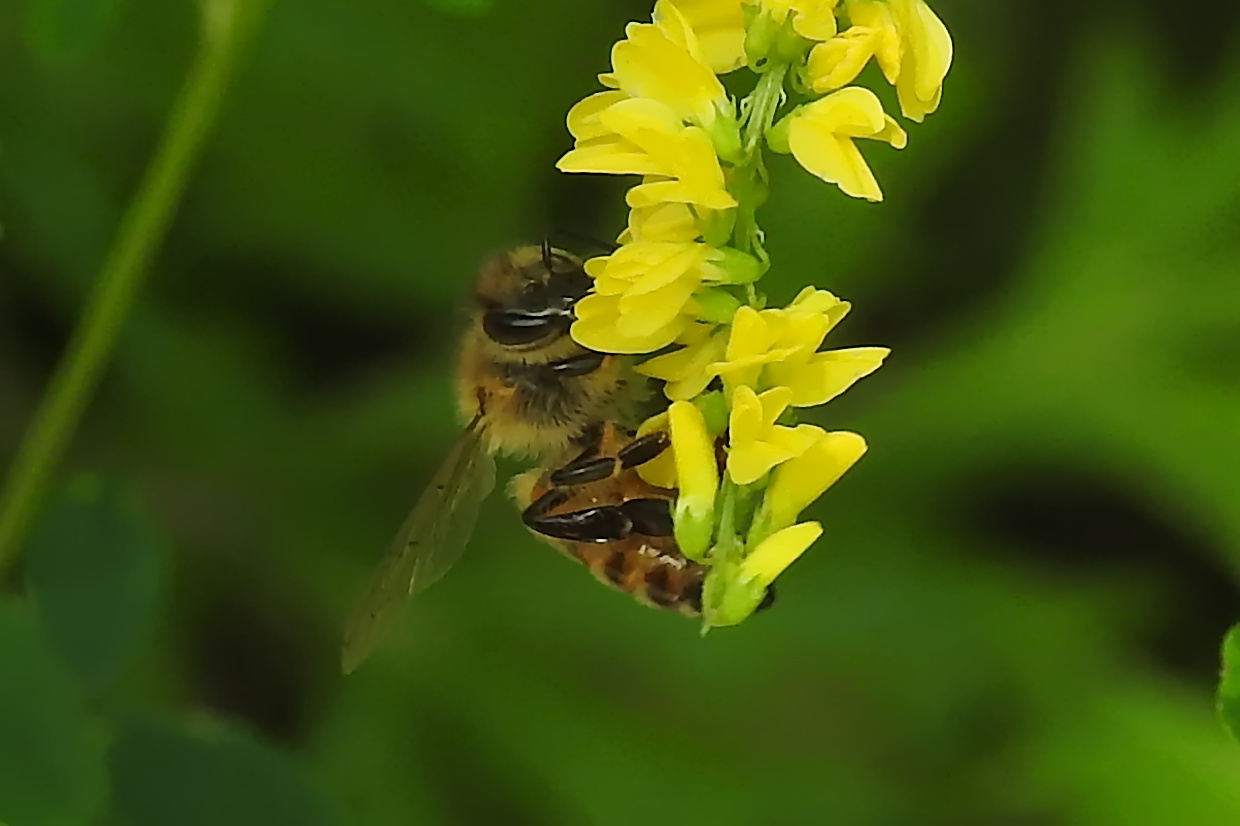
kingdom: Animalia
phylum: Arthropoda
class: Insecta
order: Hymenoptera
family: Apidae
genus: Apis
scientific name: Apis mellifera
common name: Honey bee
